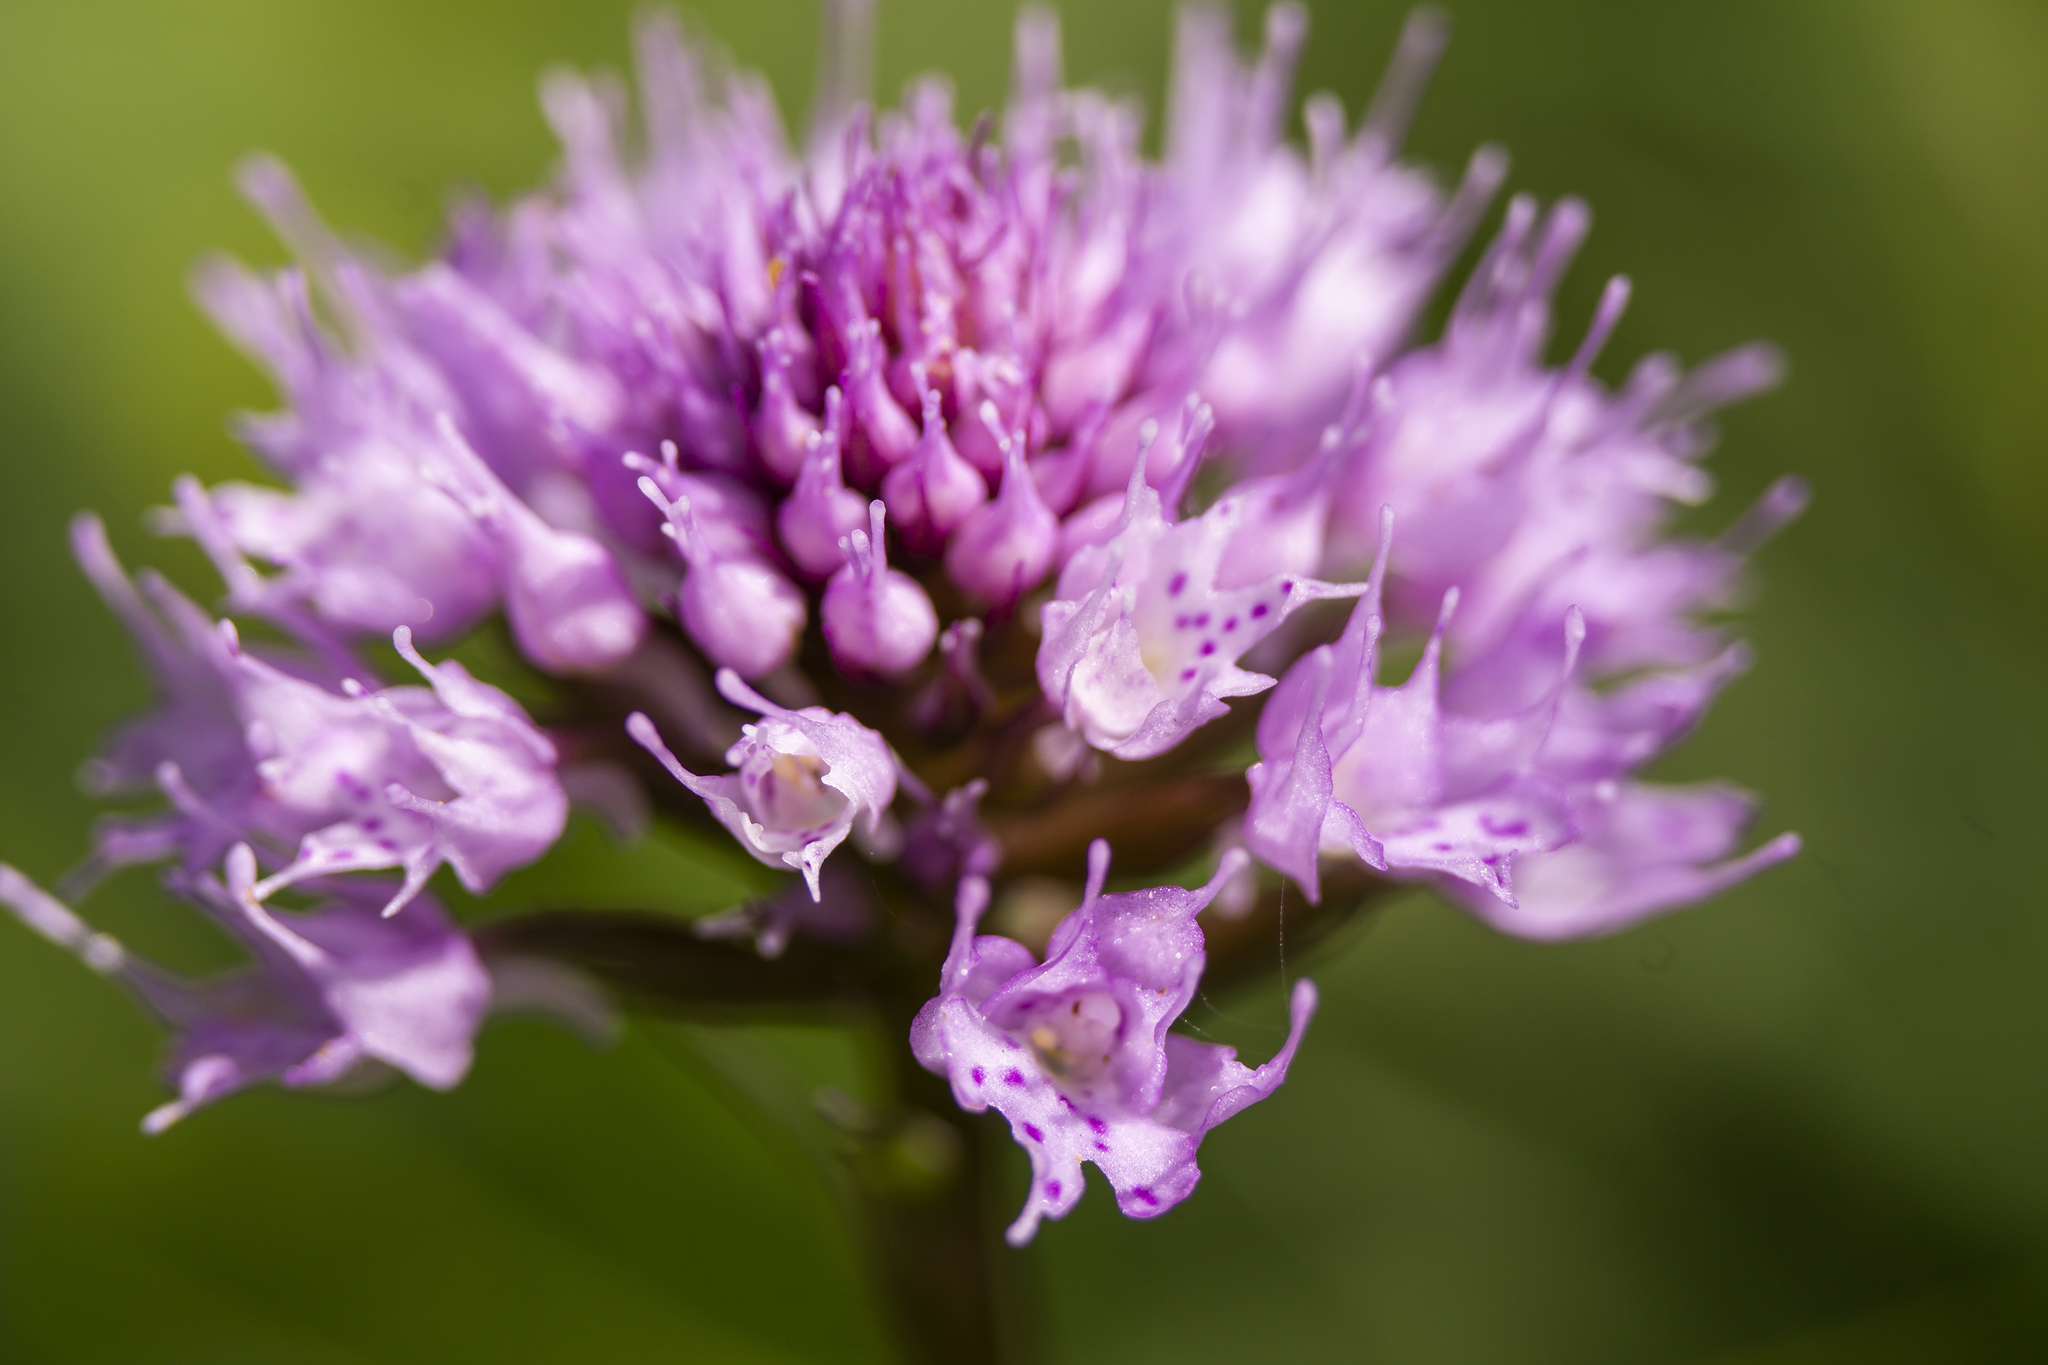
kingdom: Plantae
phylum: Tracheophyta
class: Liliopsida
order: Asparagales
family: Orchidaceae
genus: Traunsteinera
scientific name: Traunsteinera globosa
